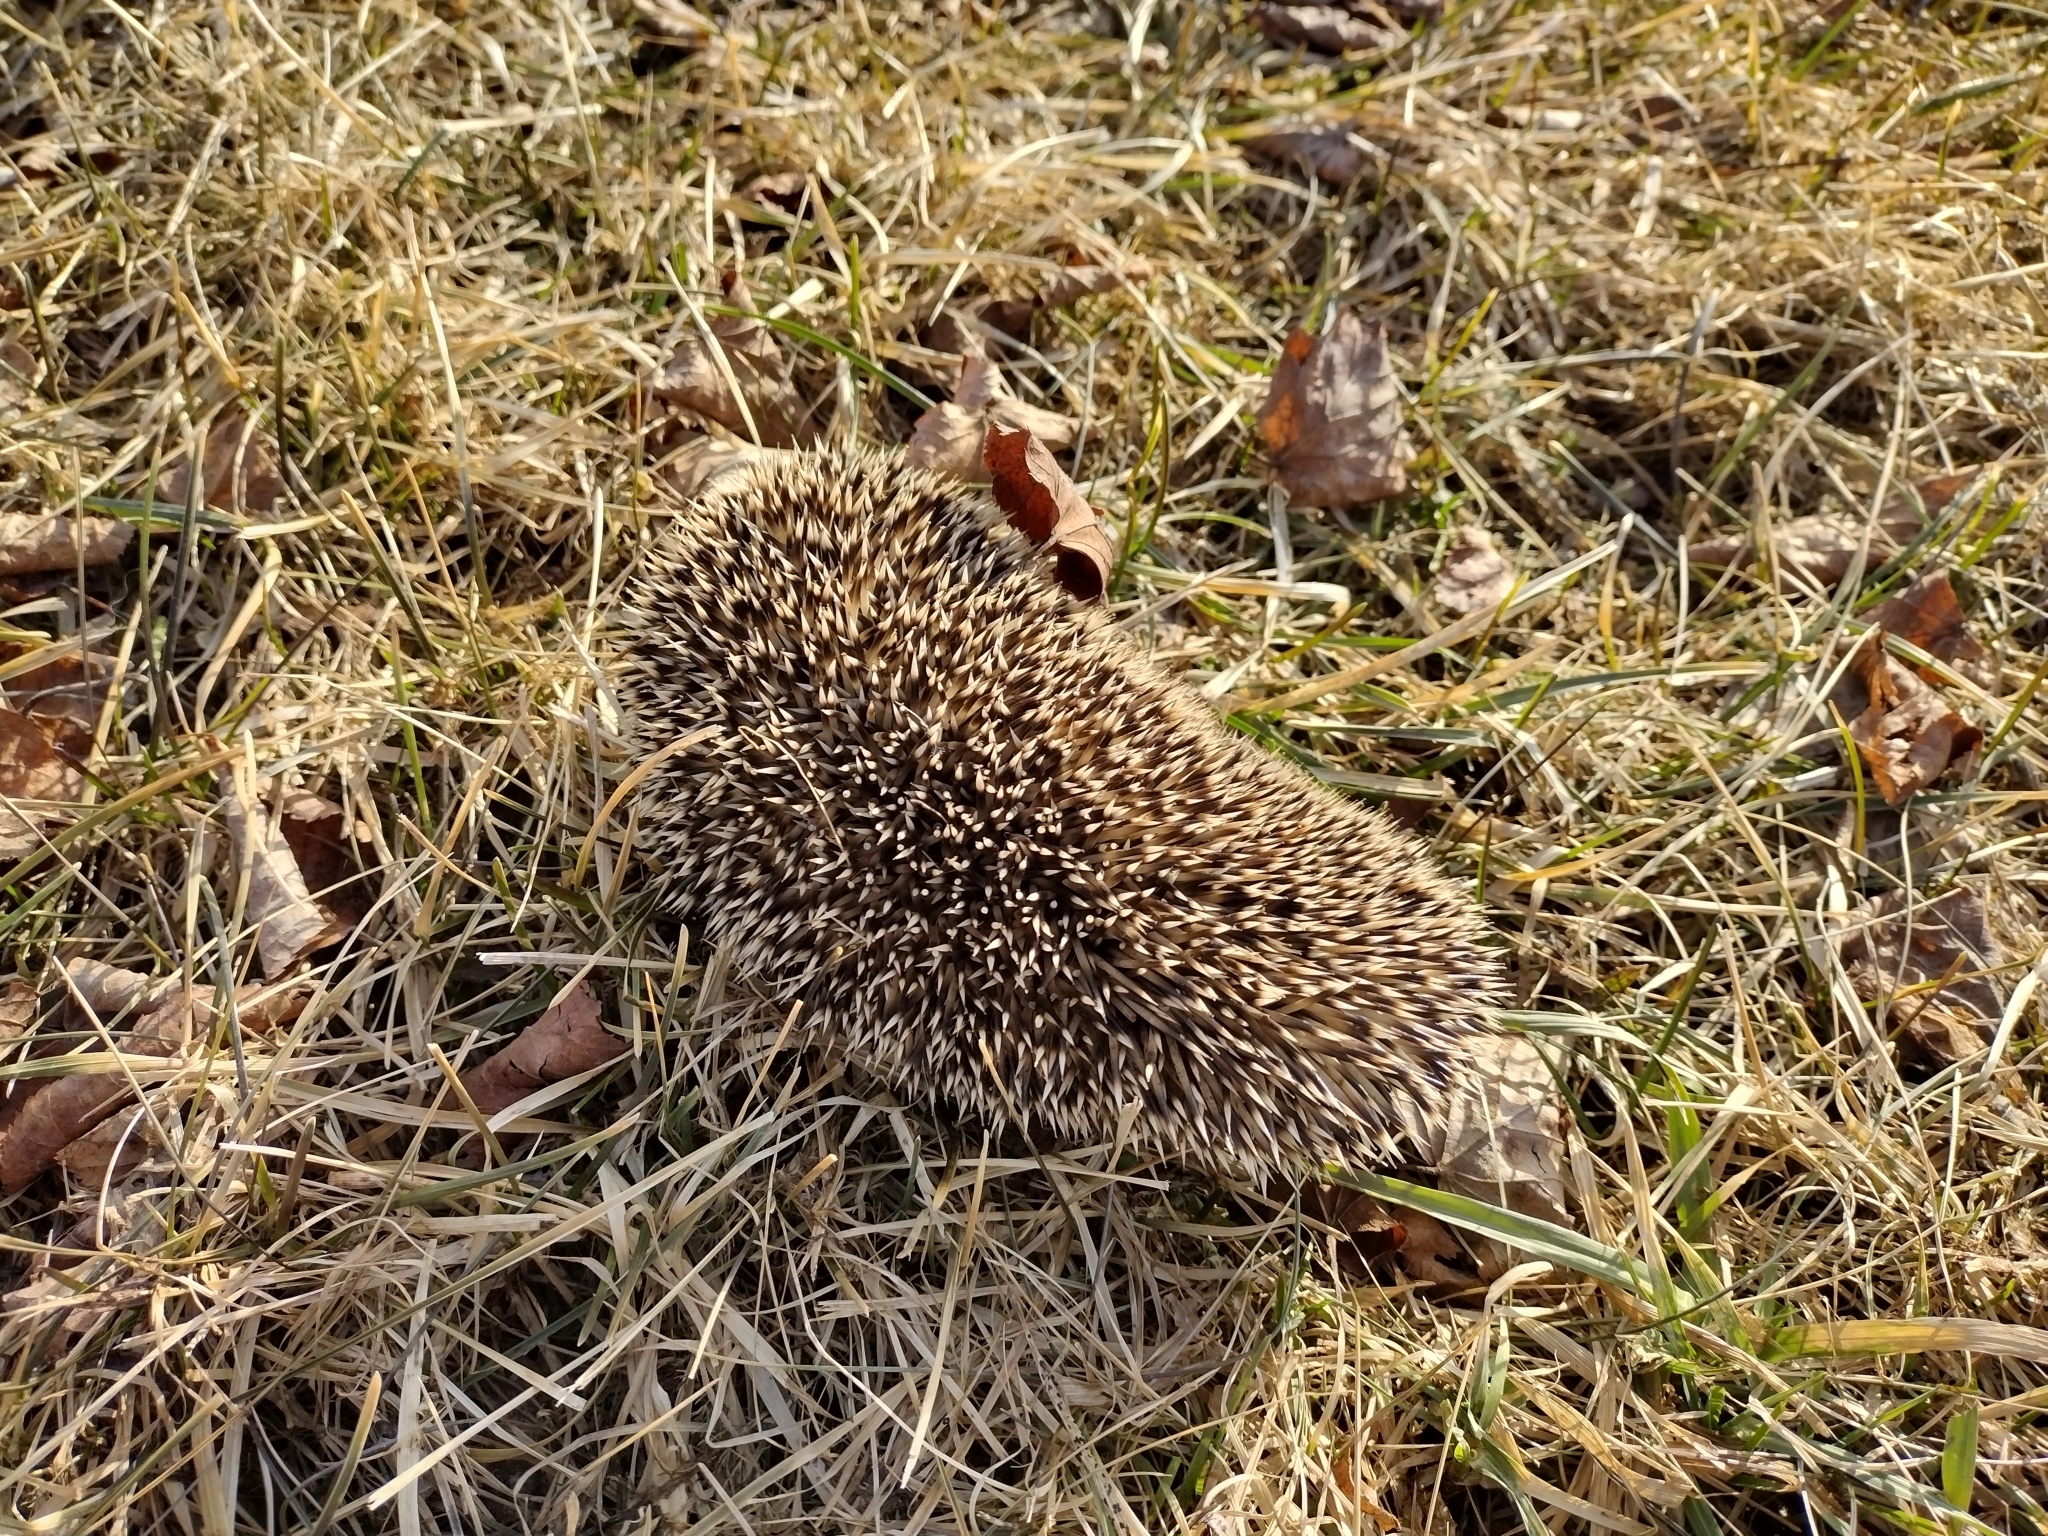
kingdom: Animalia
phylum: Chordata
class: Mammalia
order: Erinaceomorpha
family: Erinaceidae
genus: Erinaceus
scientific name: Erinaceus europaeus
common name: West european hedgehog
